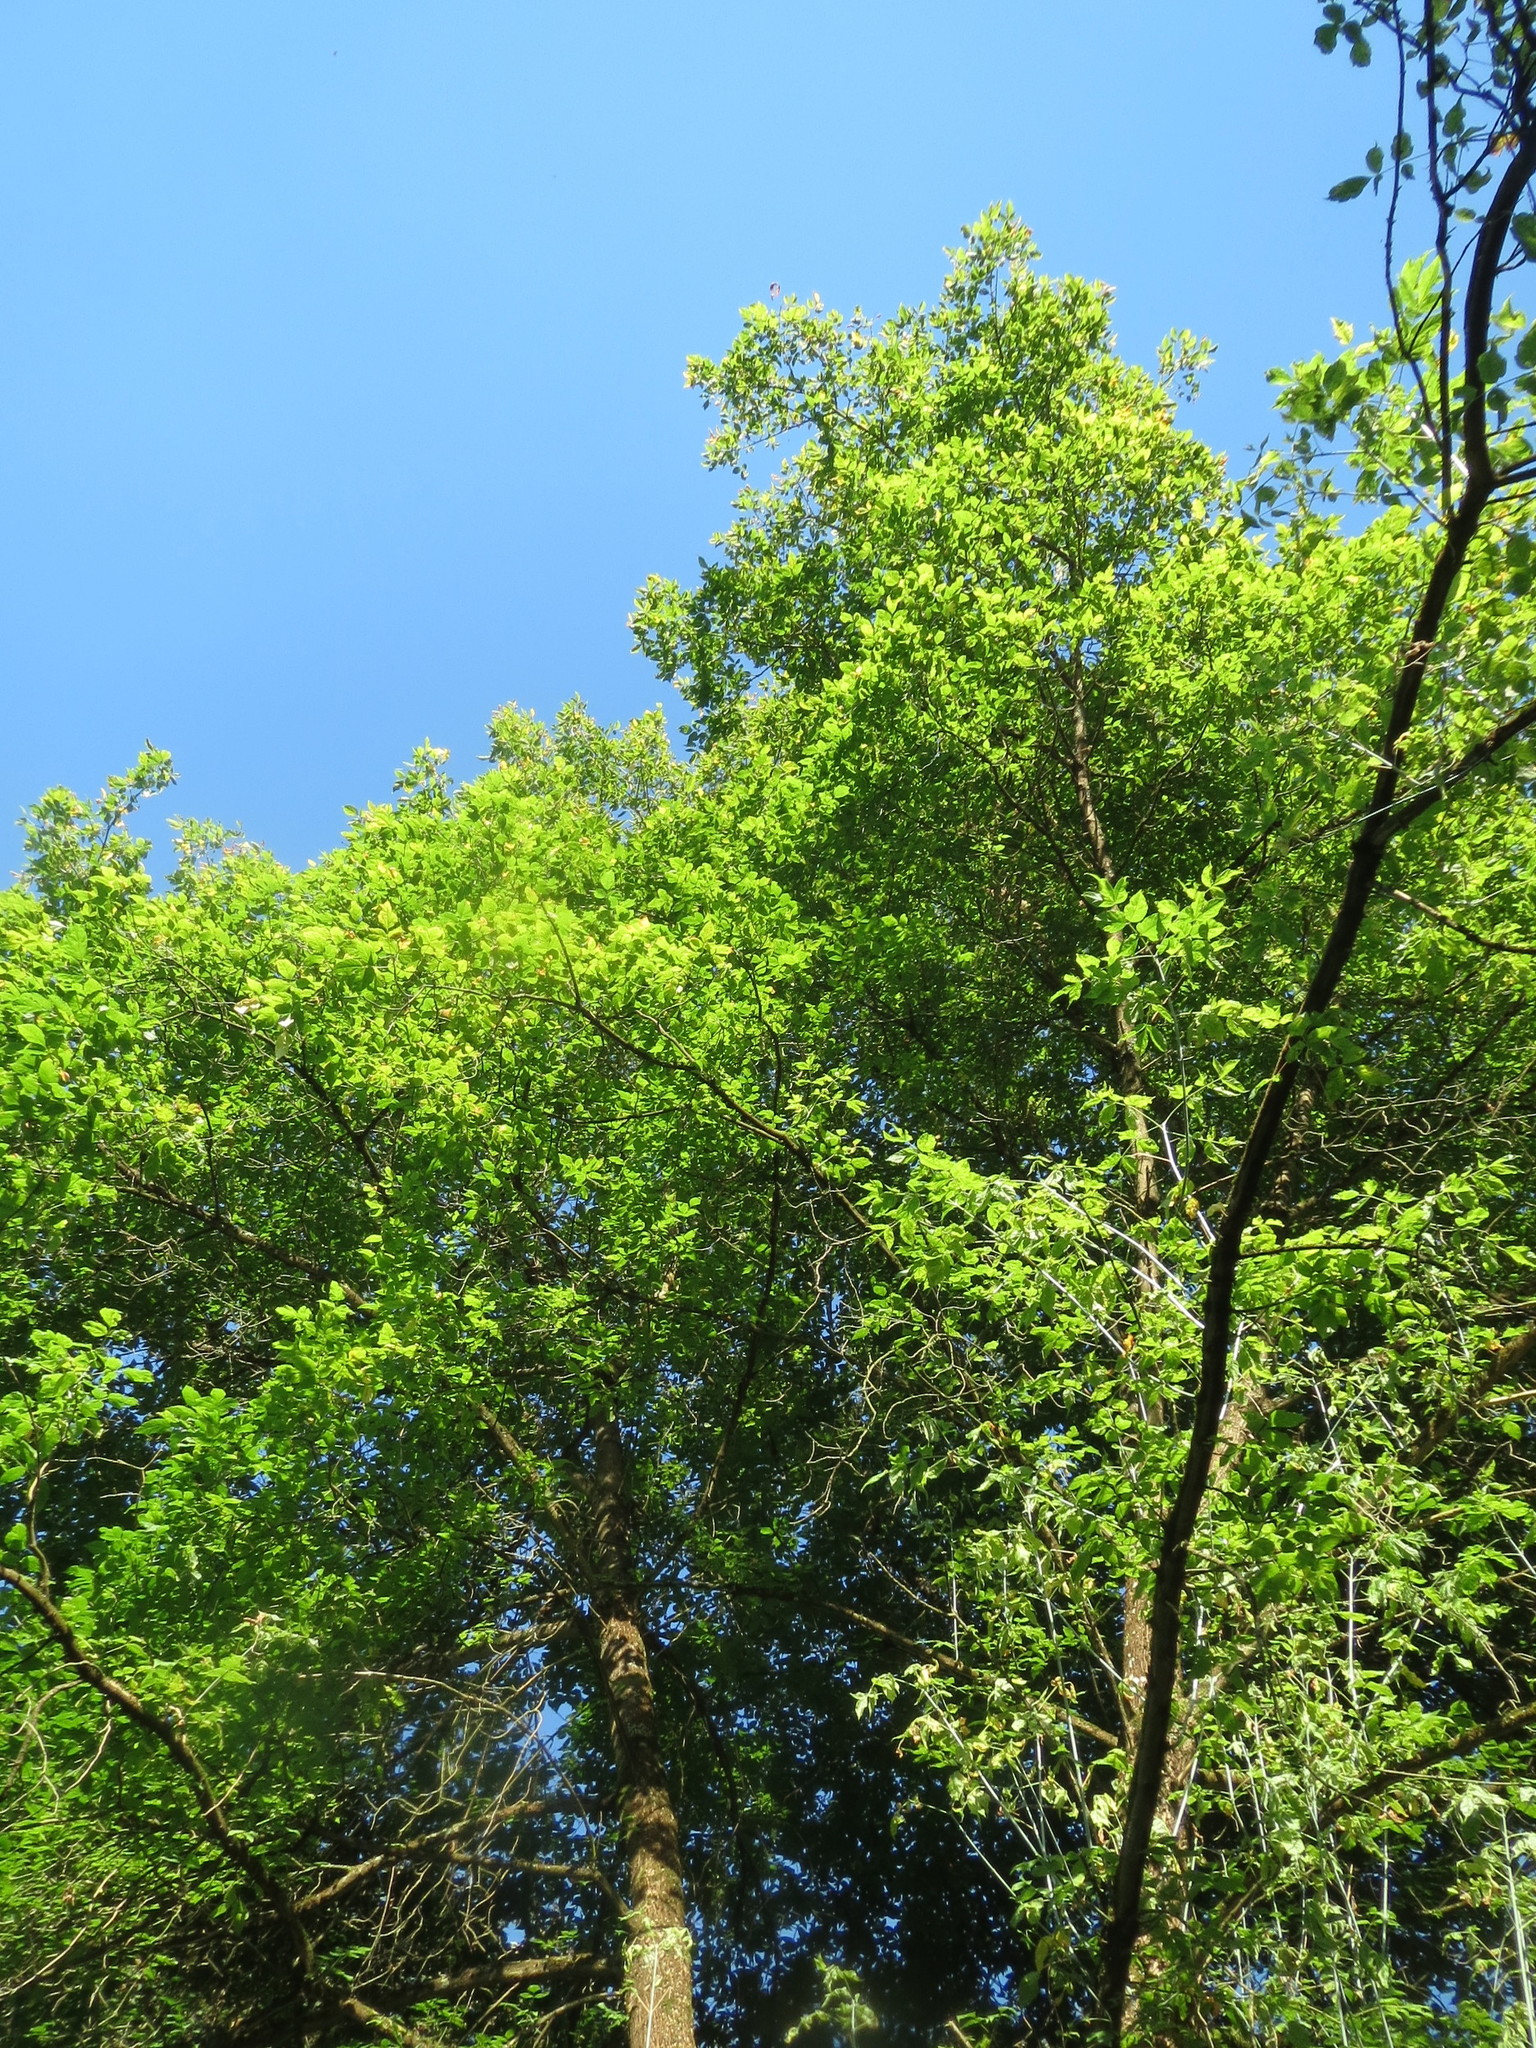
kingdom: Plantae
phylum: Tracheophyta
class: Magnoliopsida
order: Sapindales
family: Sapindaceae
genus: Acer
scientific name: Acer negundo
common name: Ashleaf maple
